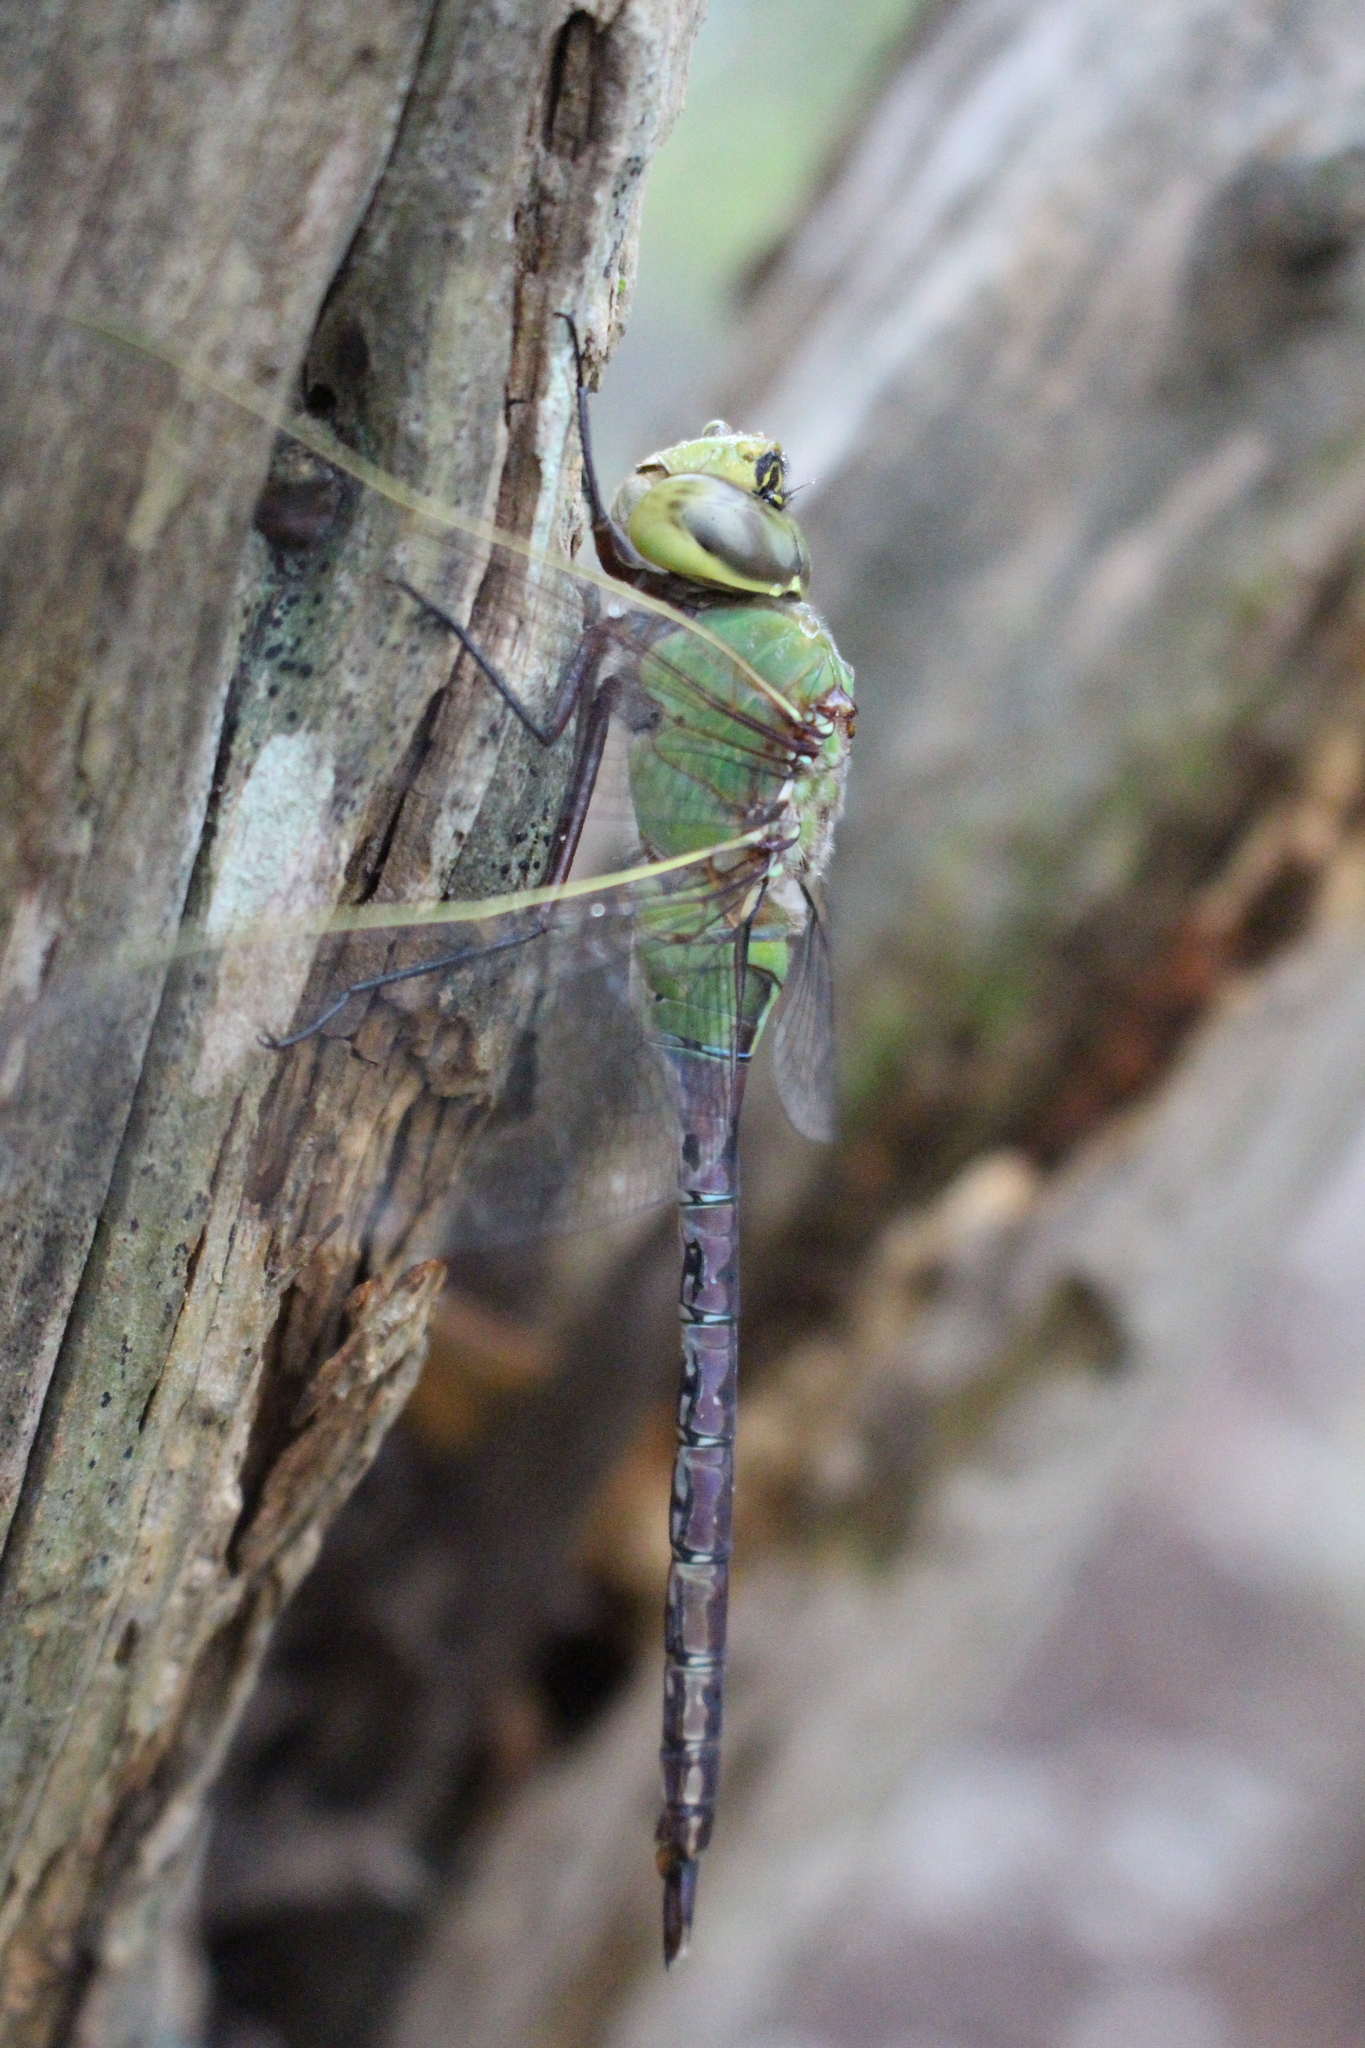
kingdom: Animalia
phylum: Arthropoda
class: Insecta
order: Odonata
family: Aeshnidae
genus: Anax
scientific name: Anax junius
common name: Common green darner
